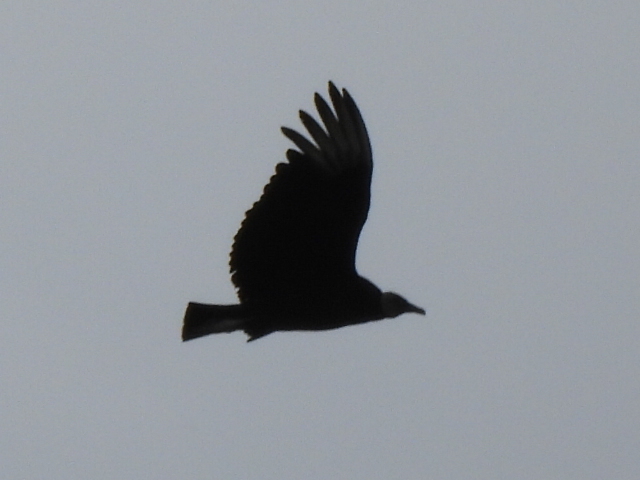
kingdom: Animalia
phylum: Chordata
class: Aves
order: Accipitriformes
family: Cathartidae
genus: Coragyps
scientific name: Coragyps atratus
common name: Black vulture
